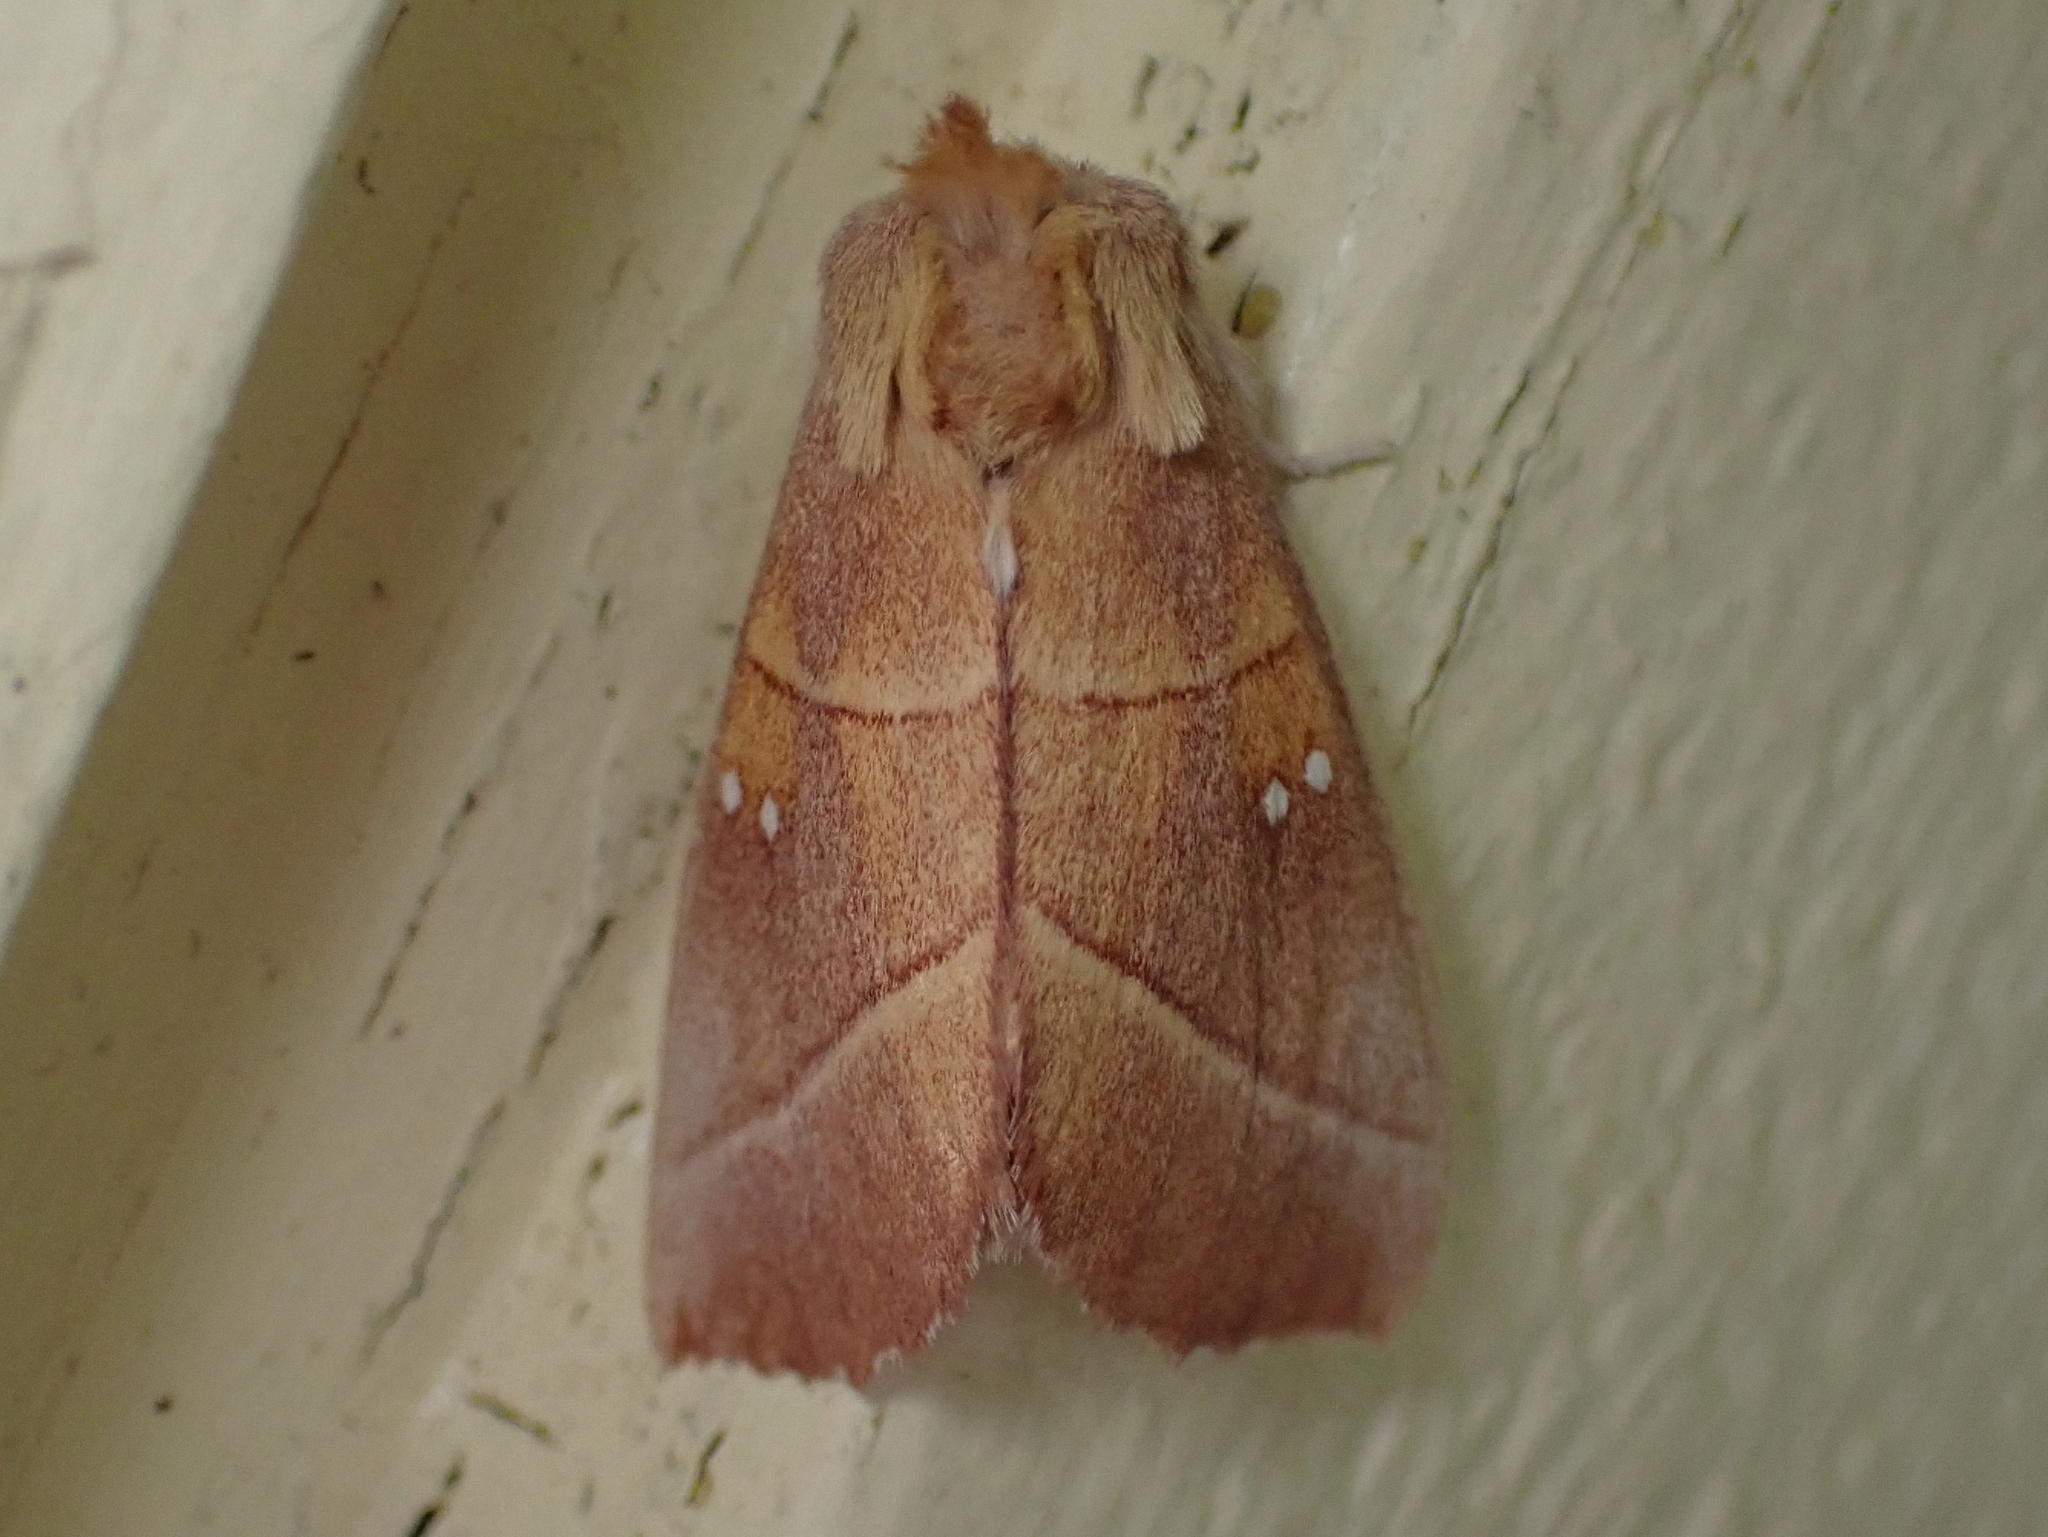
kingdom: Animalia
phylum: Arthropoda
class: Insecta
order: Lepidoptera
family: Notodontidae
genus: Nadata
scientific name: Nadata gibbosa
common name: White-dotted prominent
